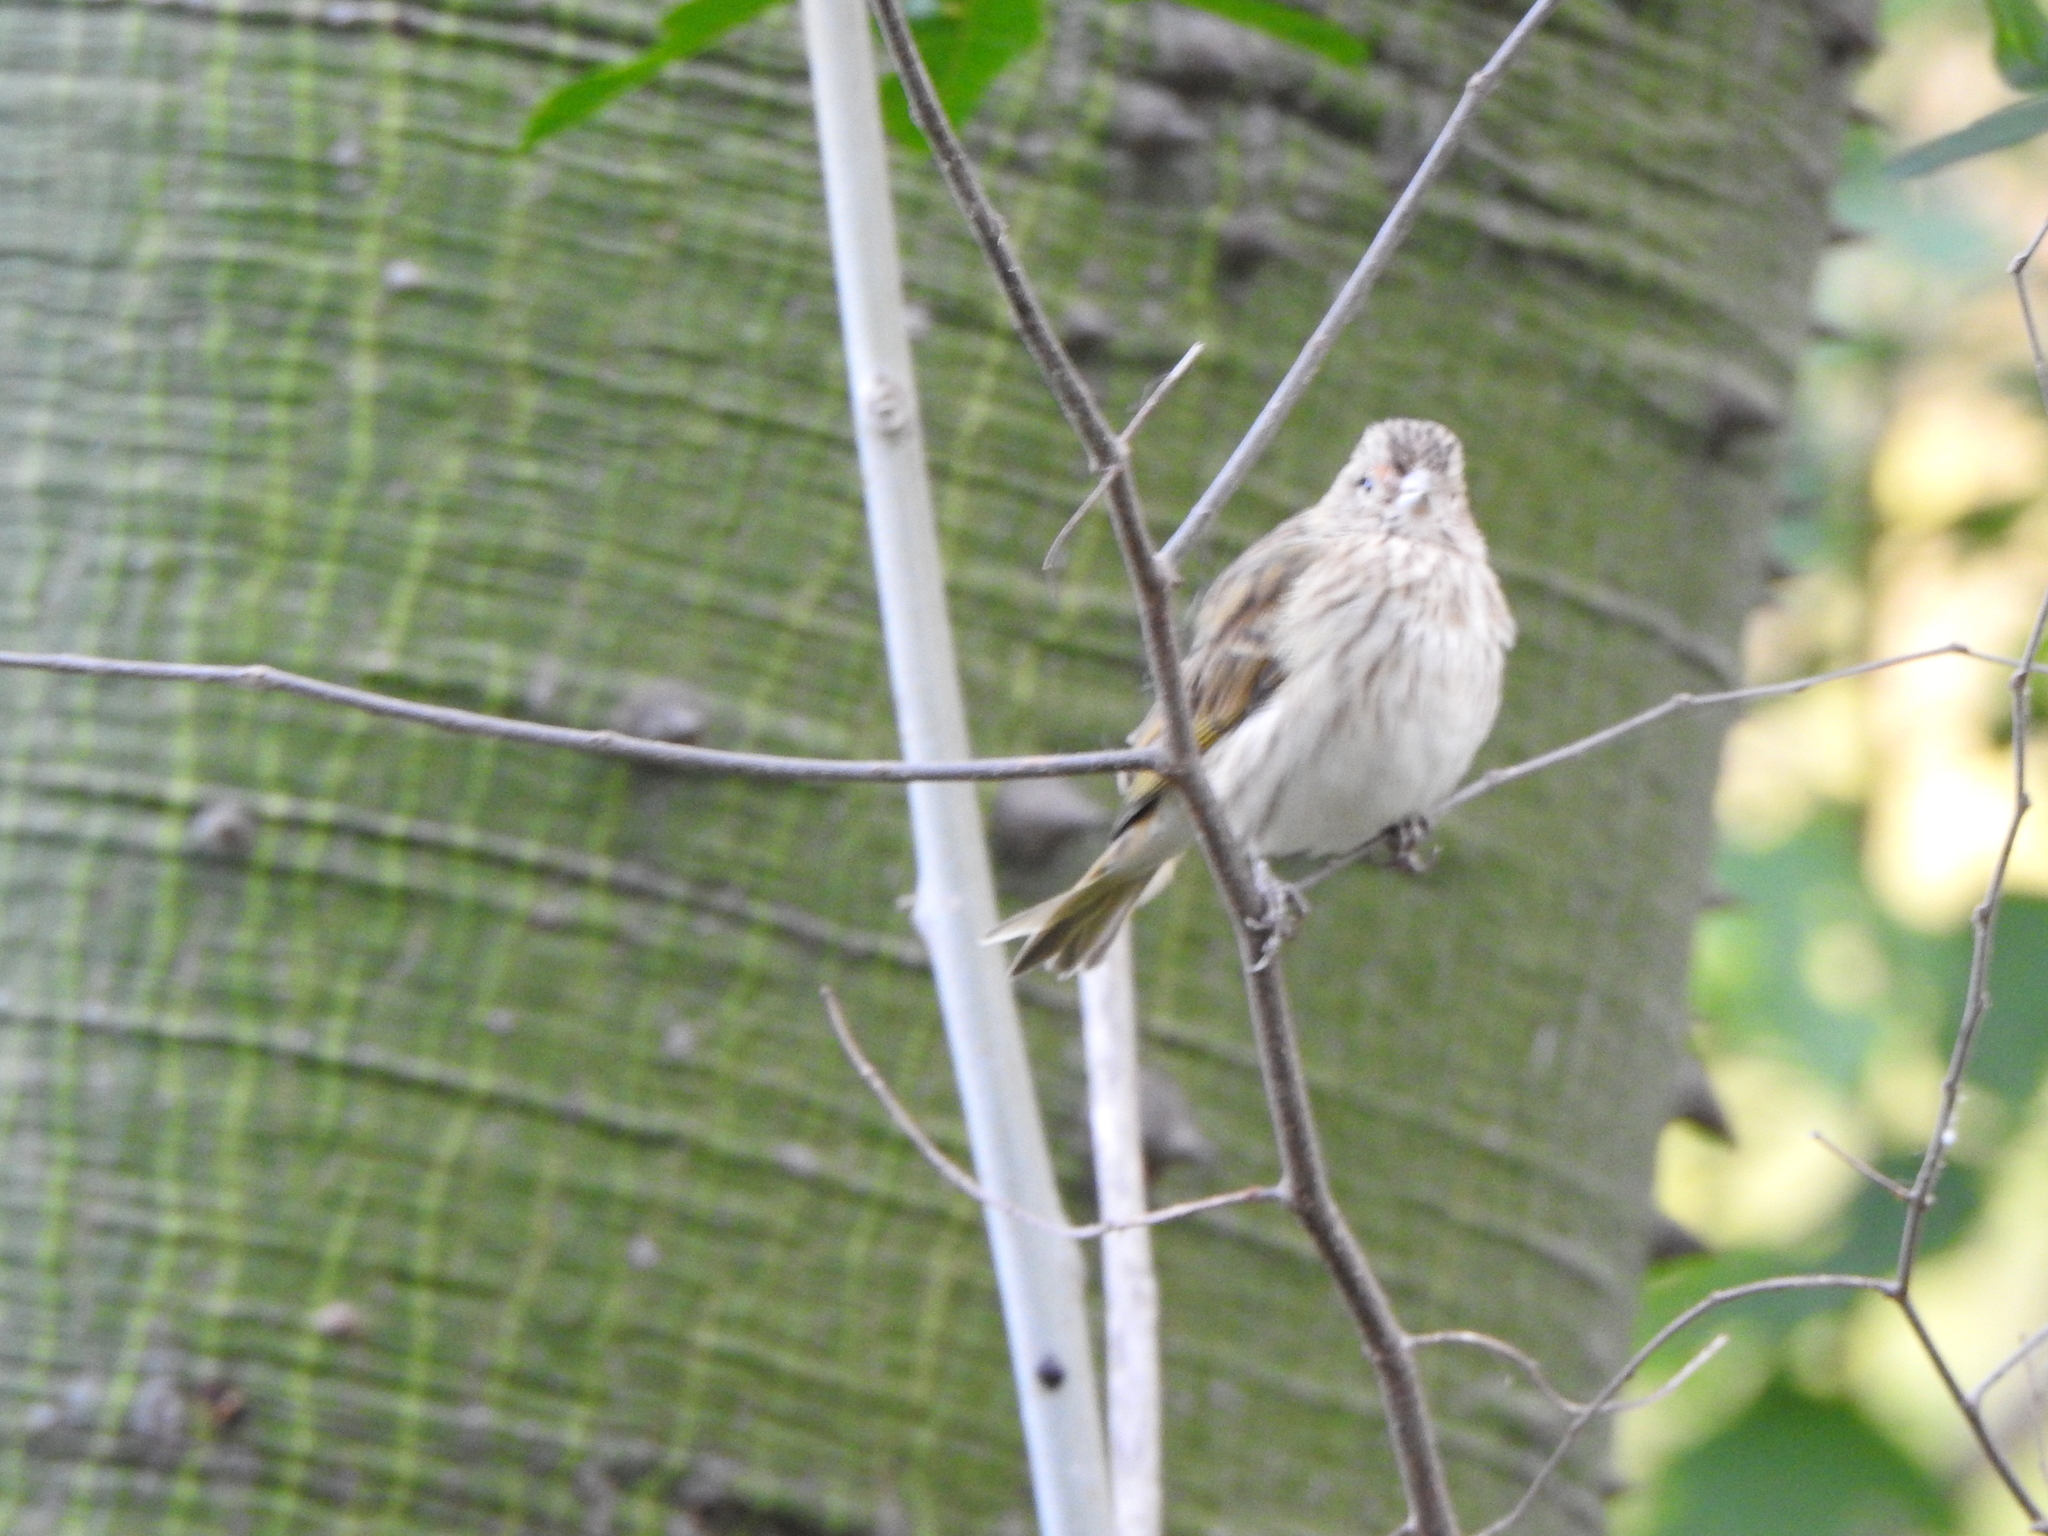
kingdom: Animalia
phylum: Chordata
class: Aves
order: Passeriformes
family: Thraupidae
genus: Sicalis
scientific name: Sicalis flaveola
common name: Saffron finch
